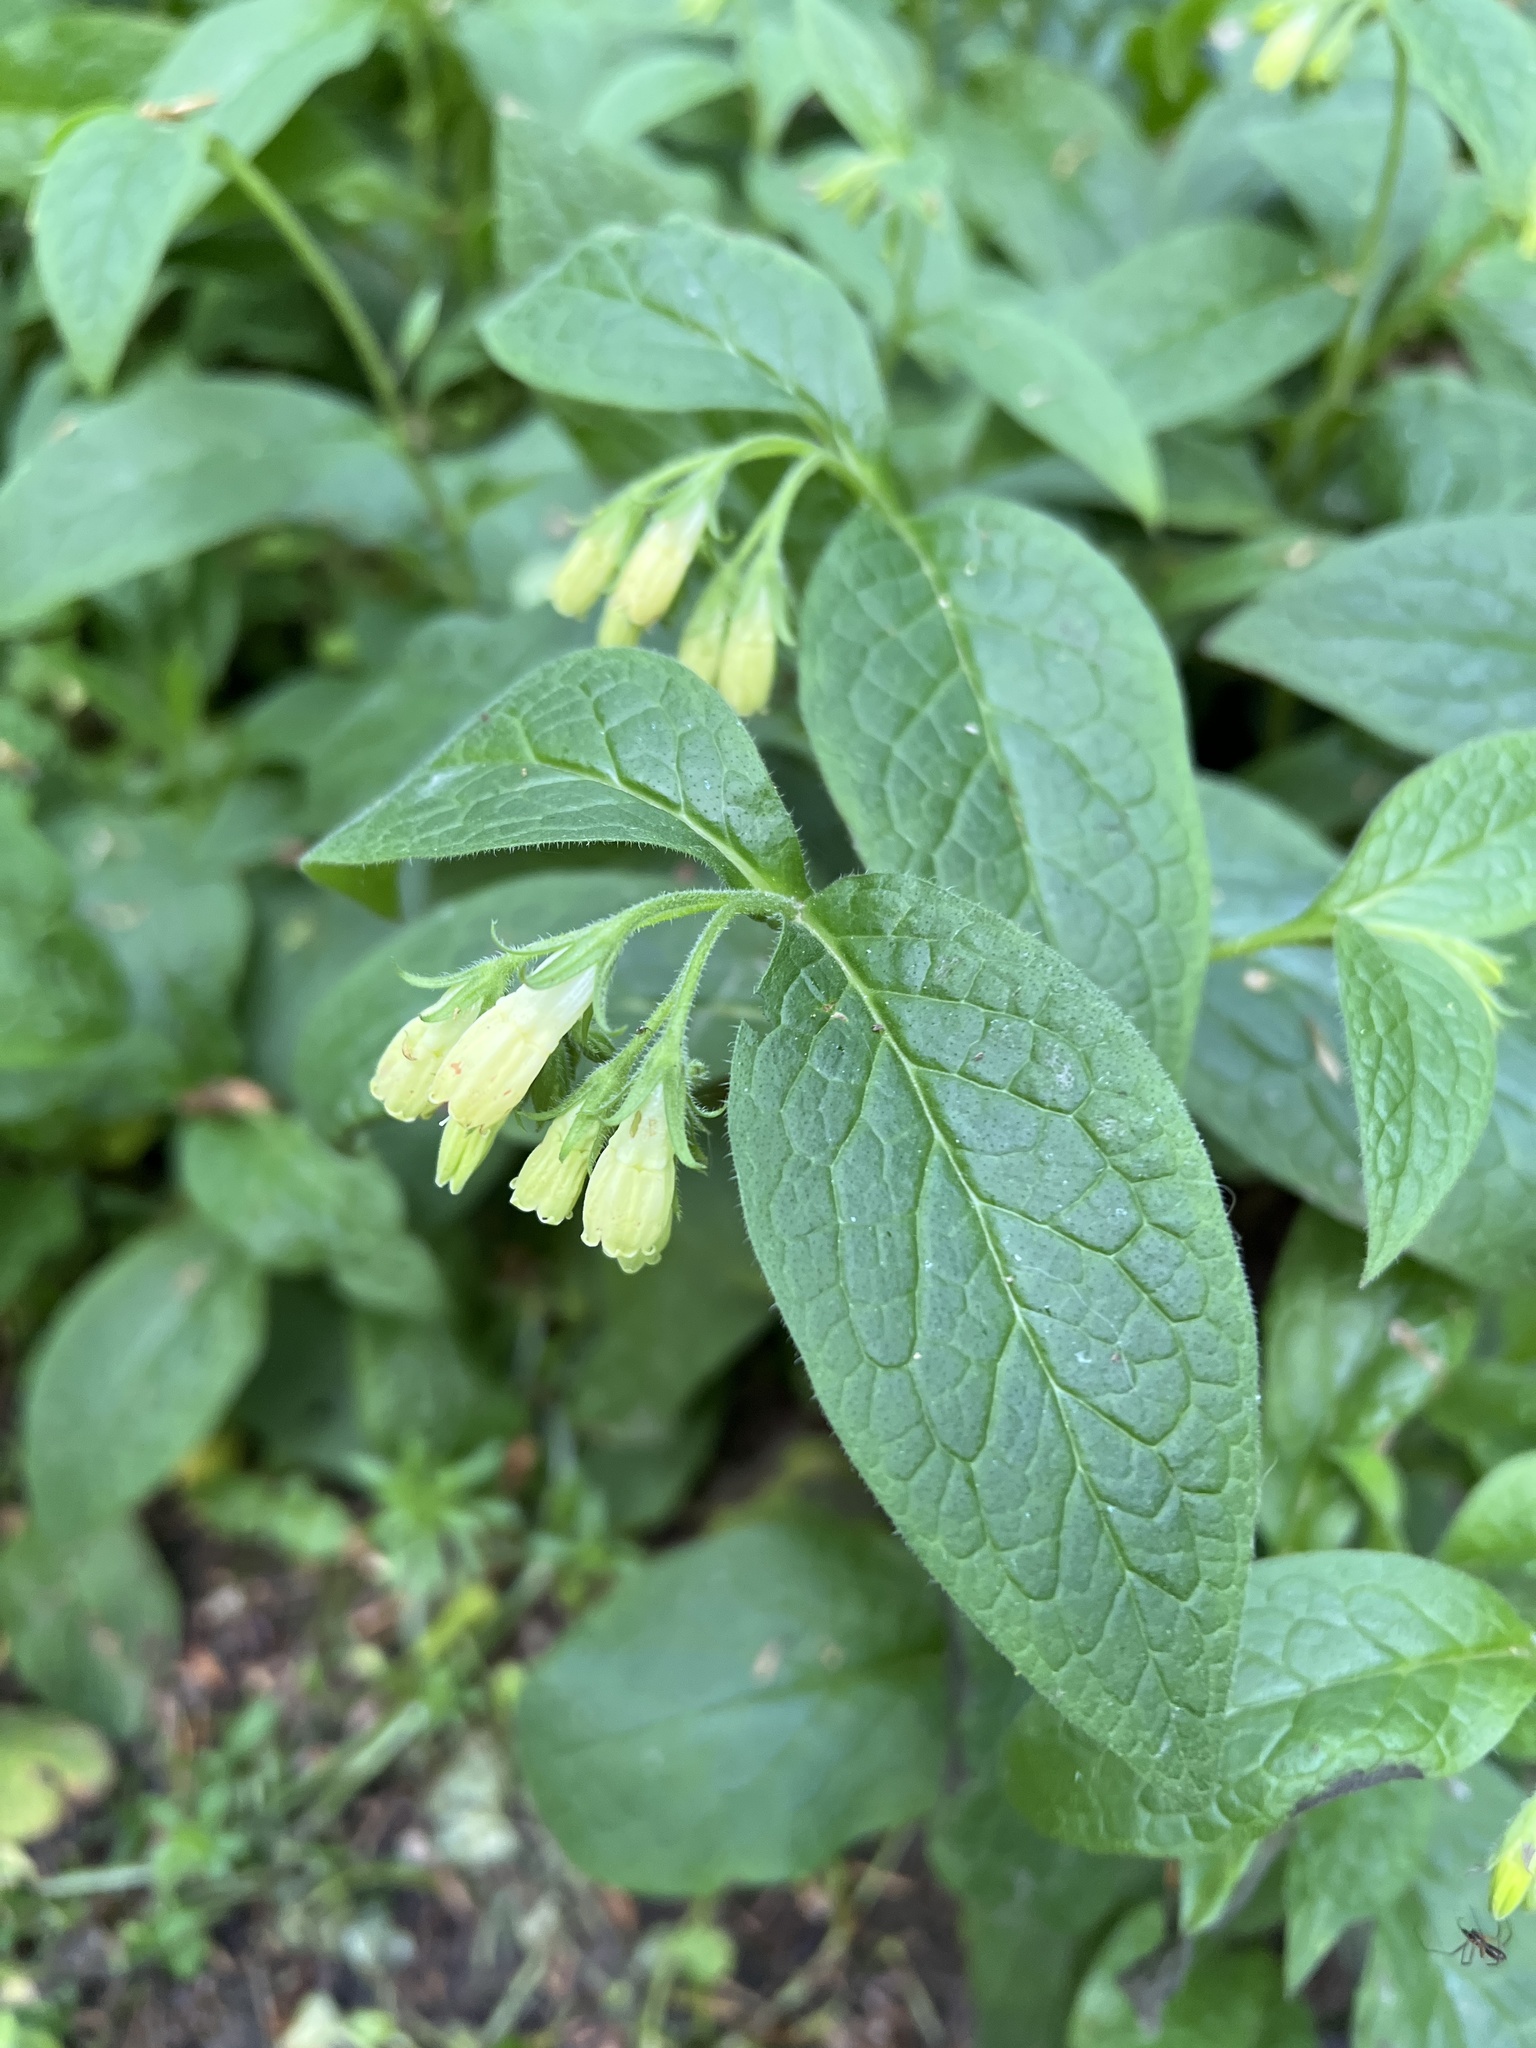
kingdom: Plantae
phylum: Tracheophyta
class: Magnoliopsida
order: Boraginales
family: Boraginaceae
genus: Symphytum
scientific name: Symphytum tuberosum
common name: Tuberous comfrey
